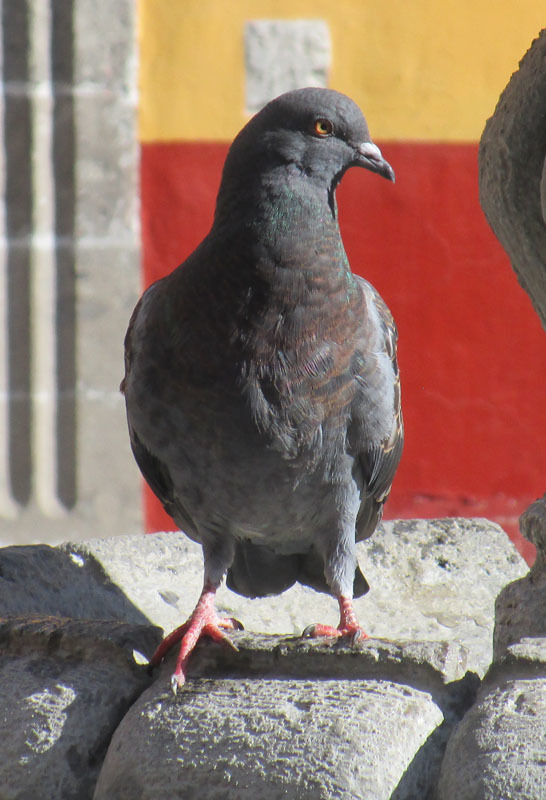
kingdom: Animalia
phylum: Chordata
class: Aves
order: Columbiformes
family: Columbidae
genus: Columba
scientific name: Columba livia
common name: Rock pigeon
